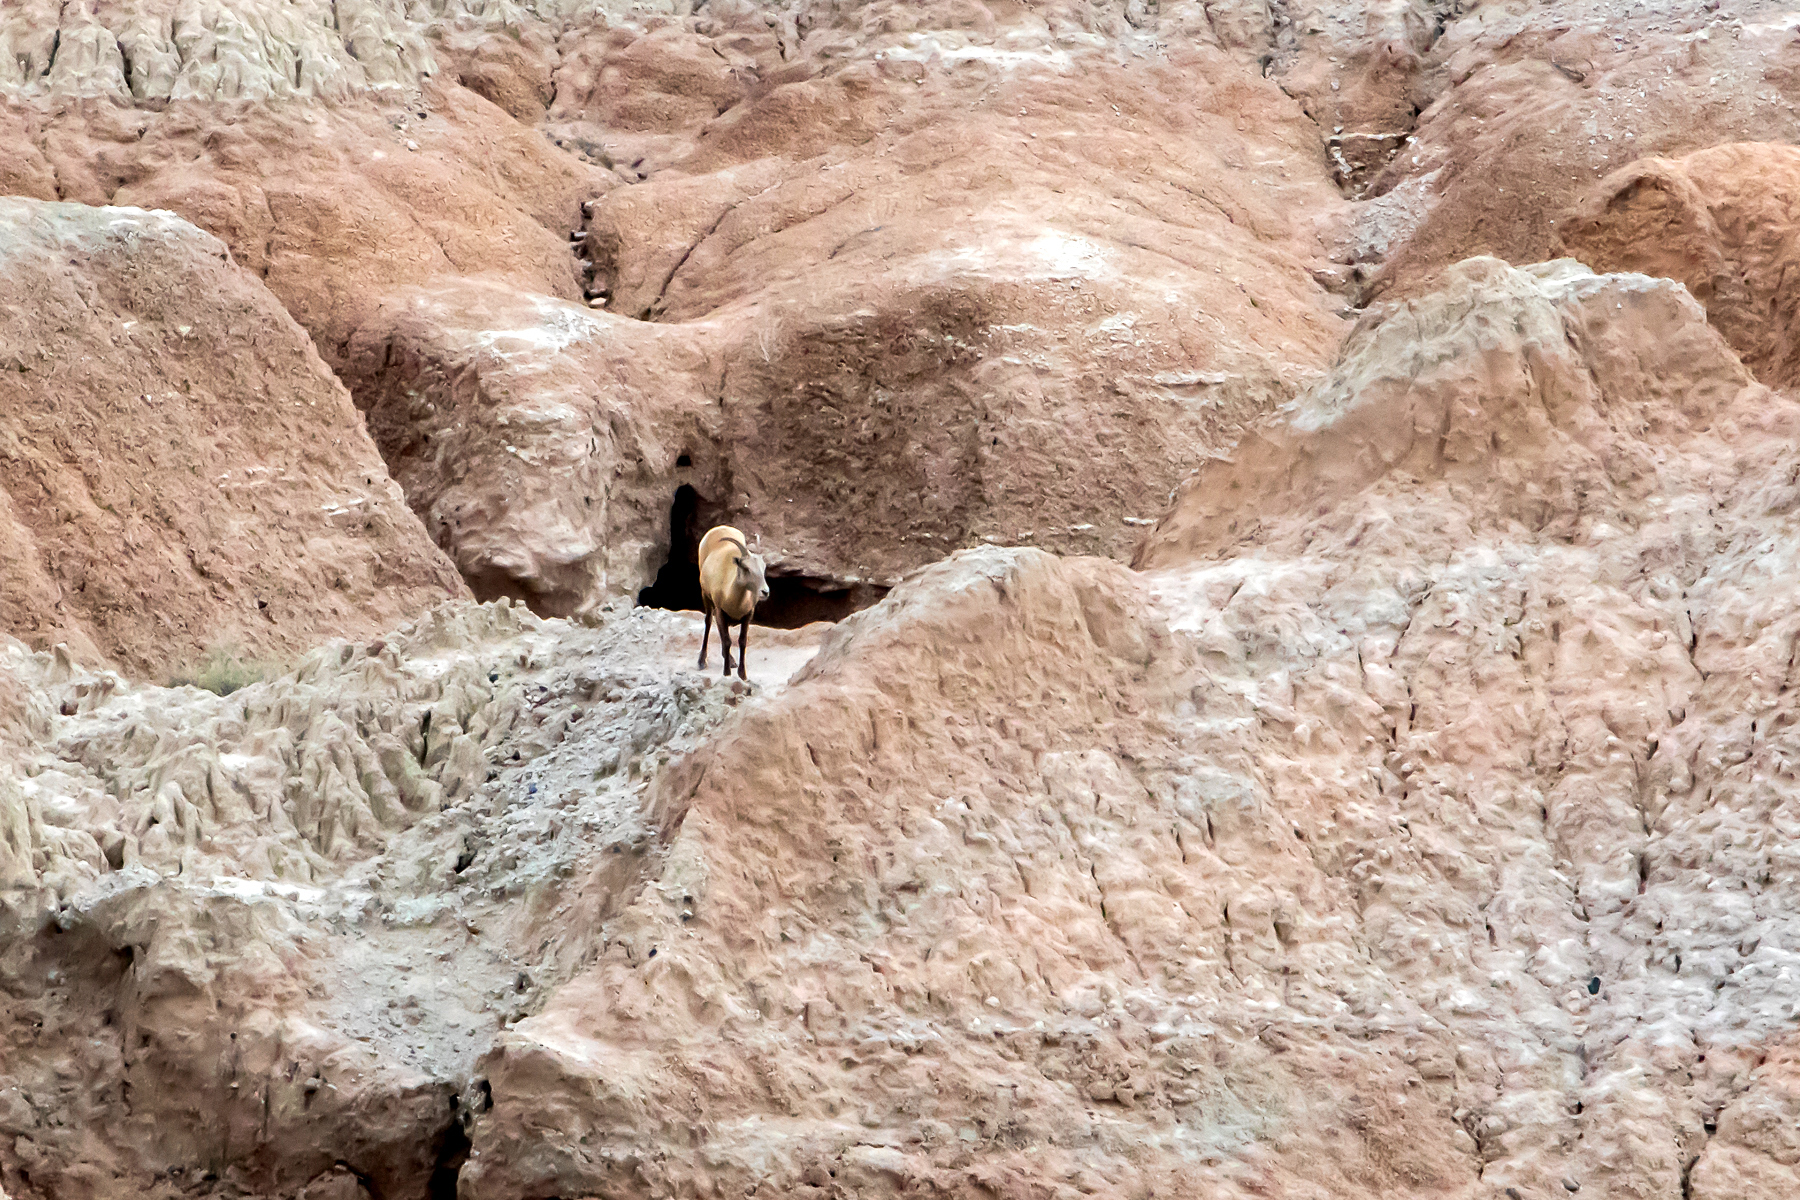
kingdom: Animalia
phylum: Chordata
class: Mammalia
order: Artiodactyla
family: Bovidae
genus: Ovis
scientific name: Ovis canadensis
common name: Bighorn sheep
